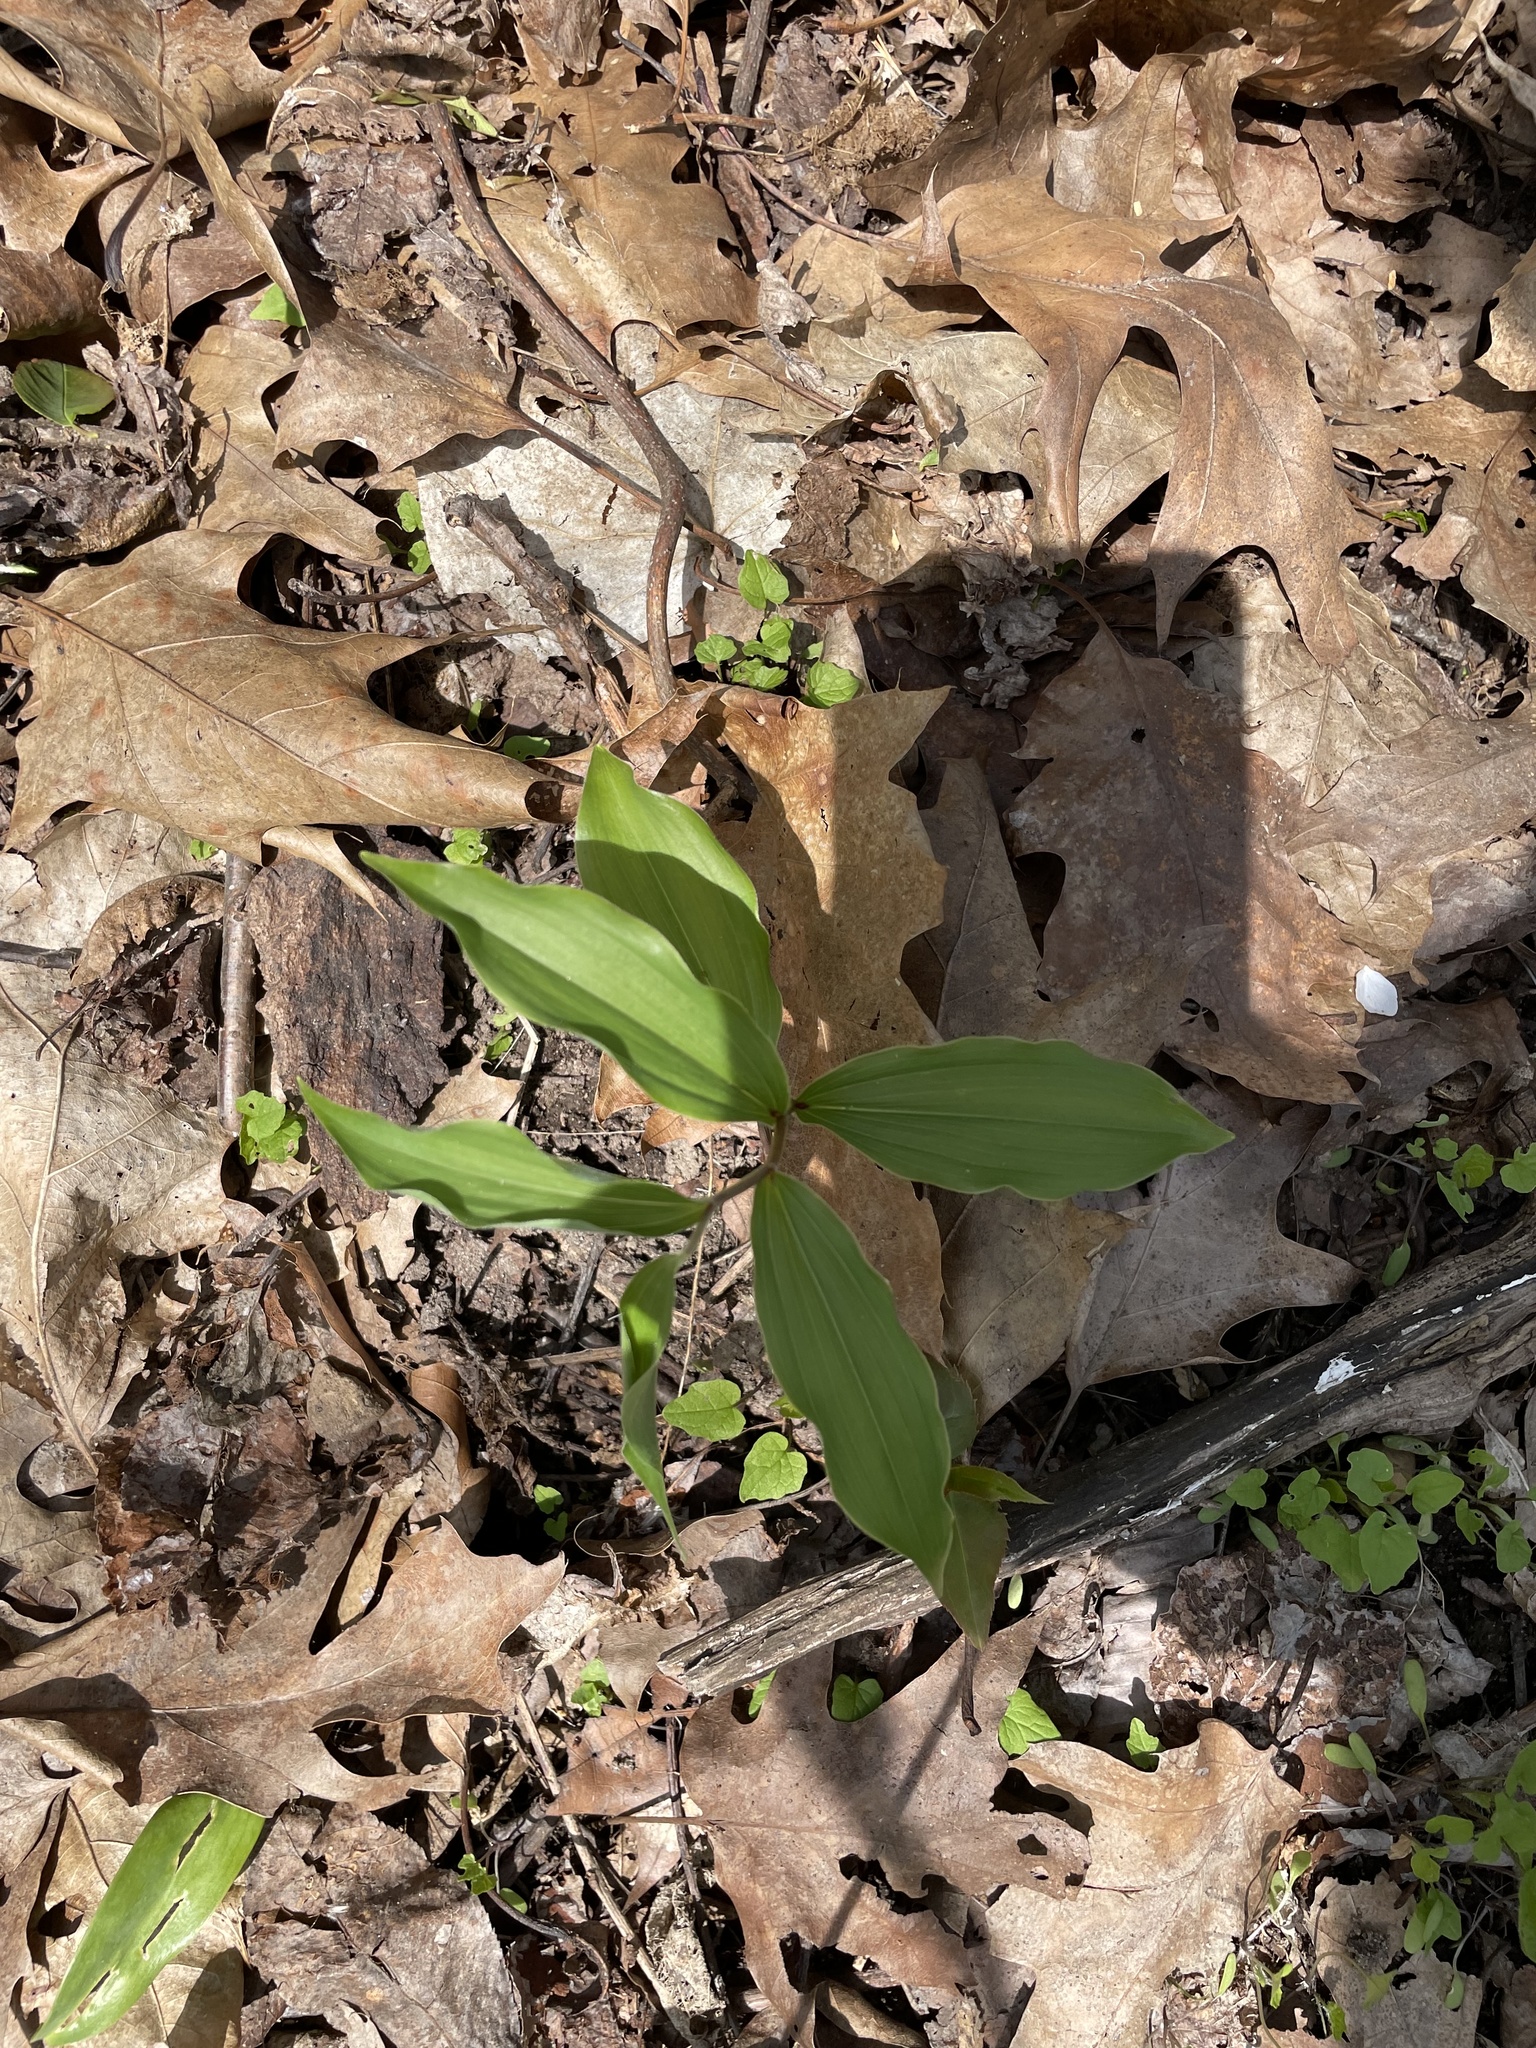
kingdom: Plantae
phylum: Tracheophyta
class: Liliopsida
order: Asparagales
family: Asparagaceae
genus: Maianthemum
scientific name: Maianthemum racemosum
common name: False spikenard
